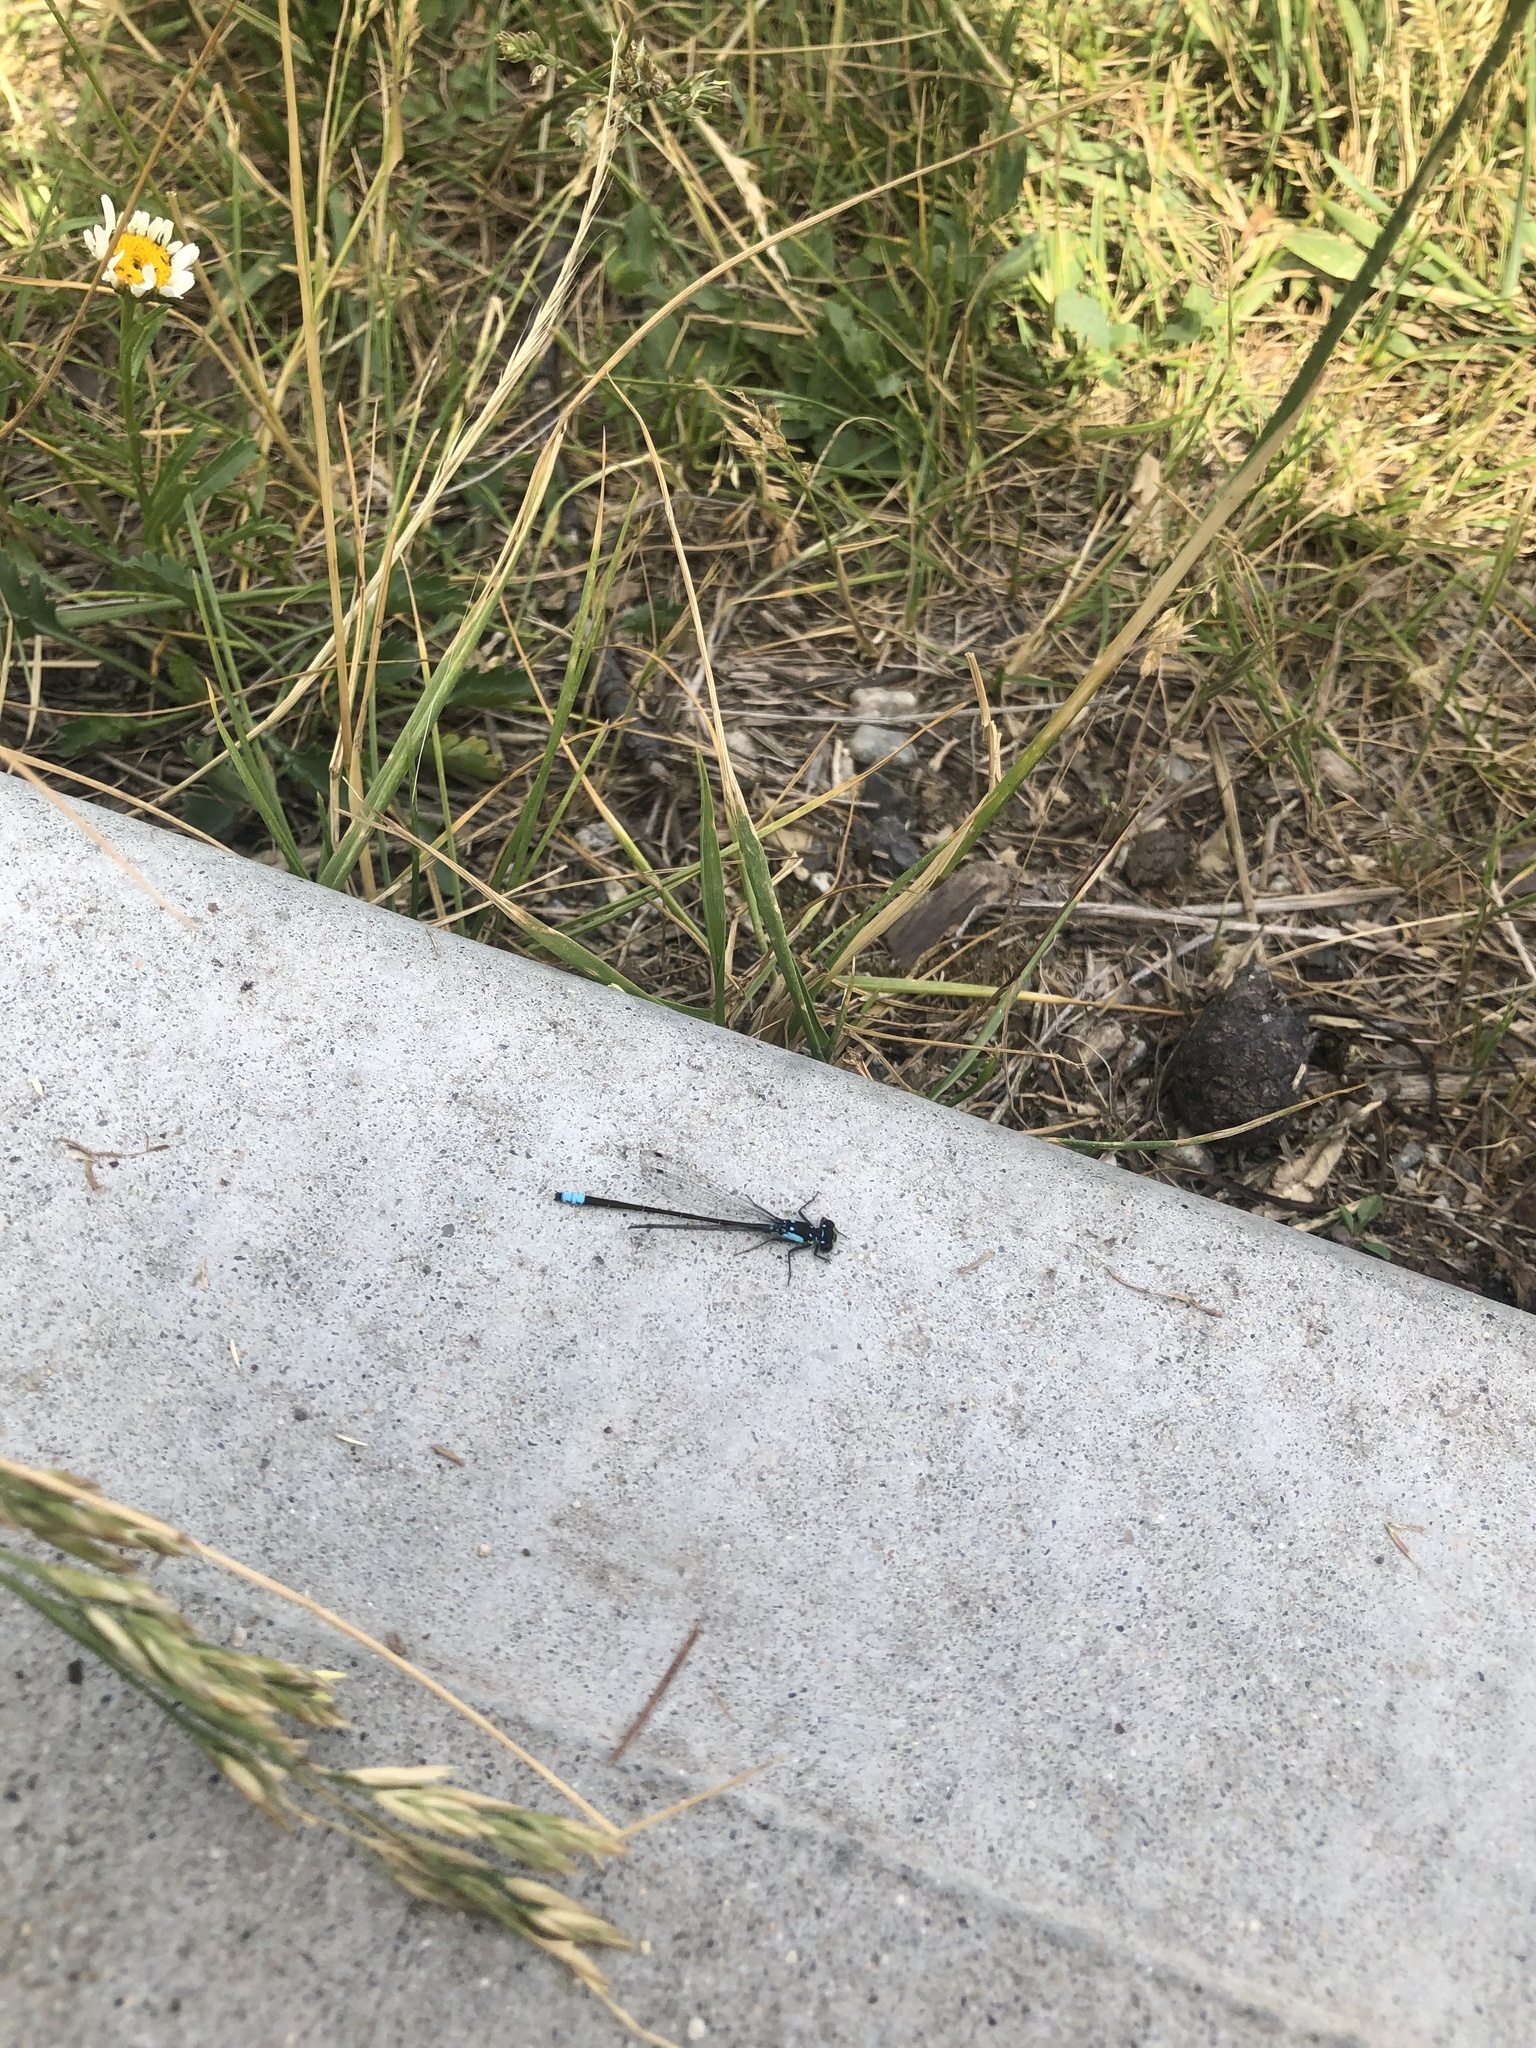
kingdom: Animalia
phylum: Arthropoda
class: Insecta
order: Odonata
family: Coenagrionidae
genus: Ischnura
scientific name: Ischnura cervula
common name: Pacific forktail
